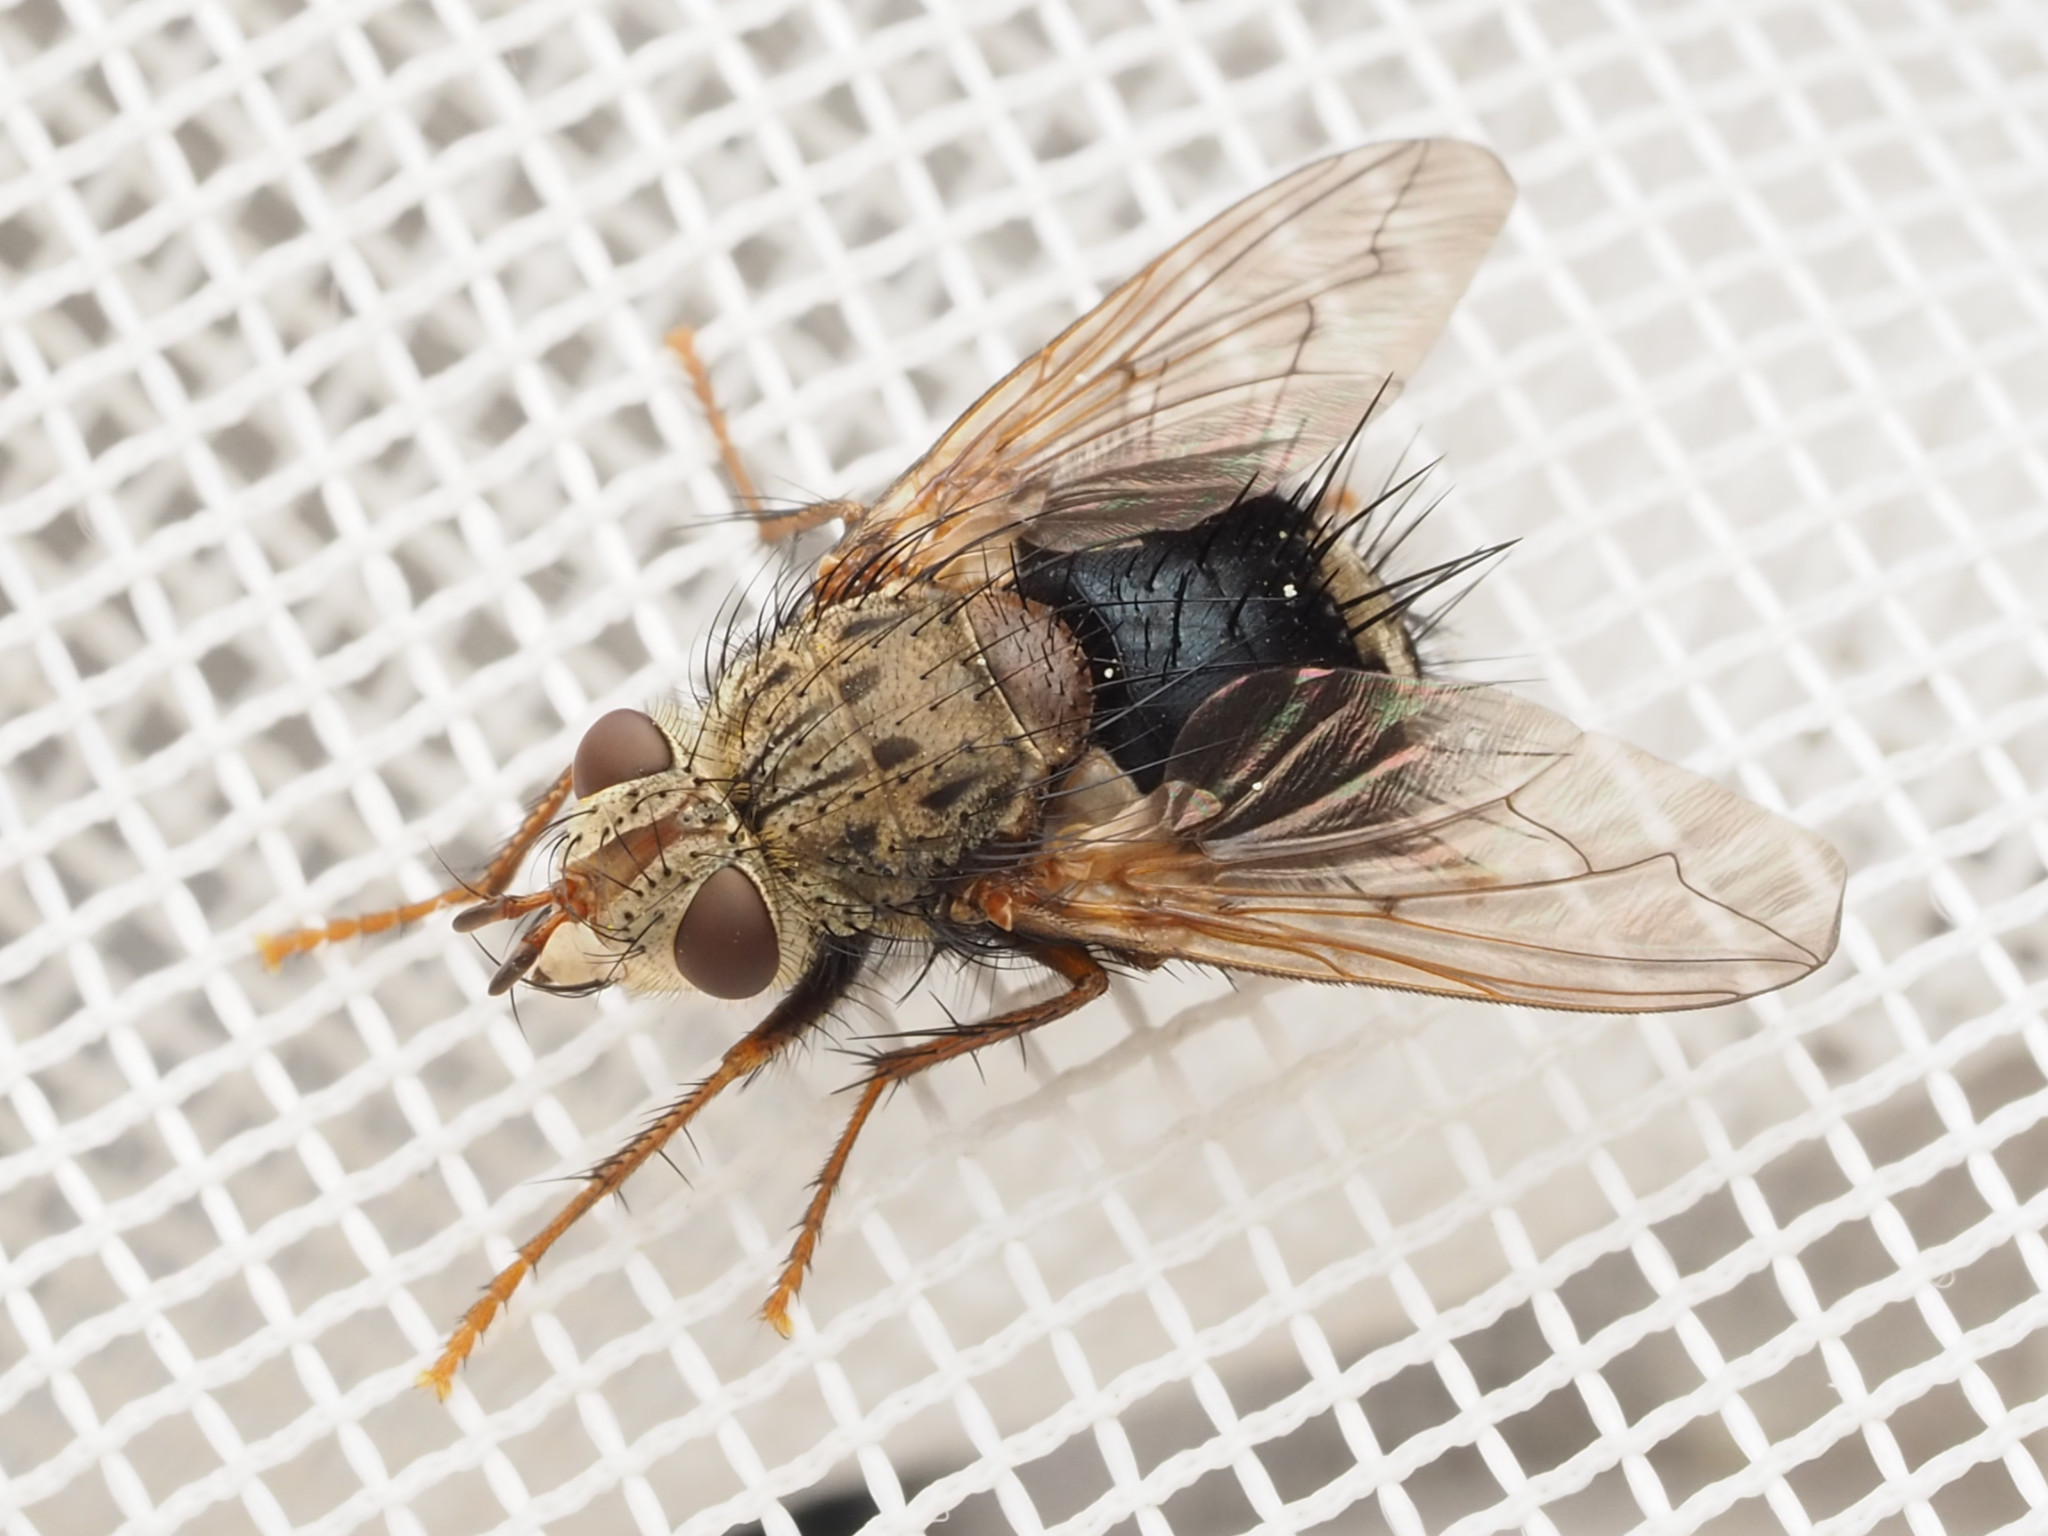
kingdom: Animalia
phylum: Arthropoda
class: Insecta
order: Diptera
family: Tachinidae
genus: Epalpus
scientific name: Epalpus signifer
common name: Early tachinid fly
